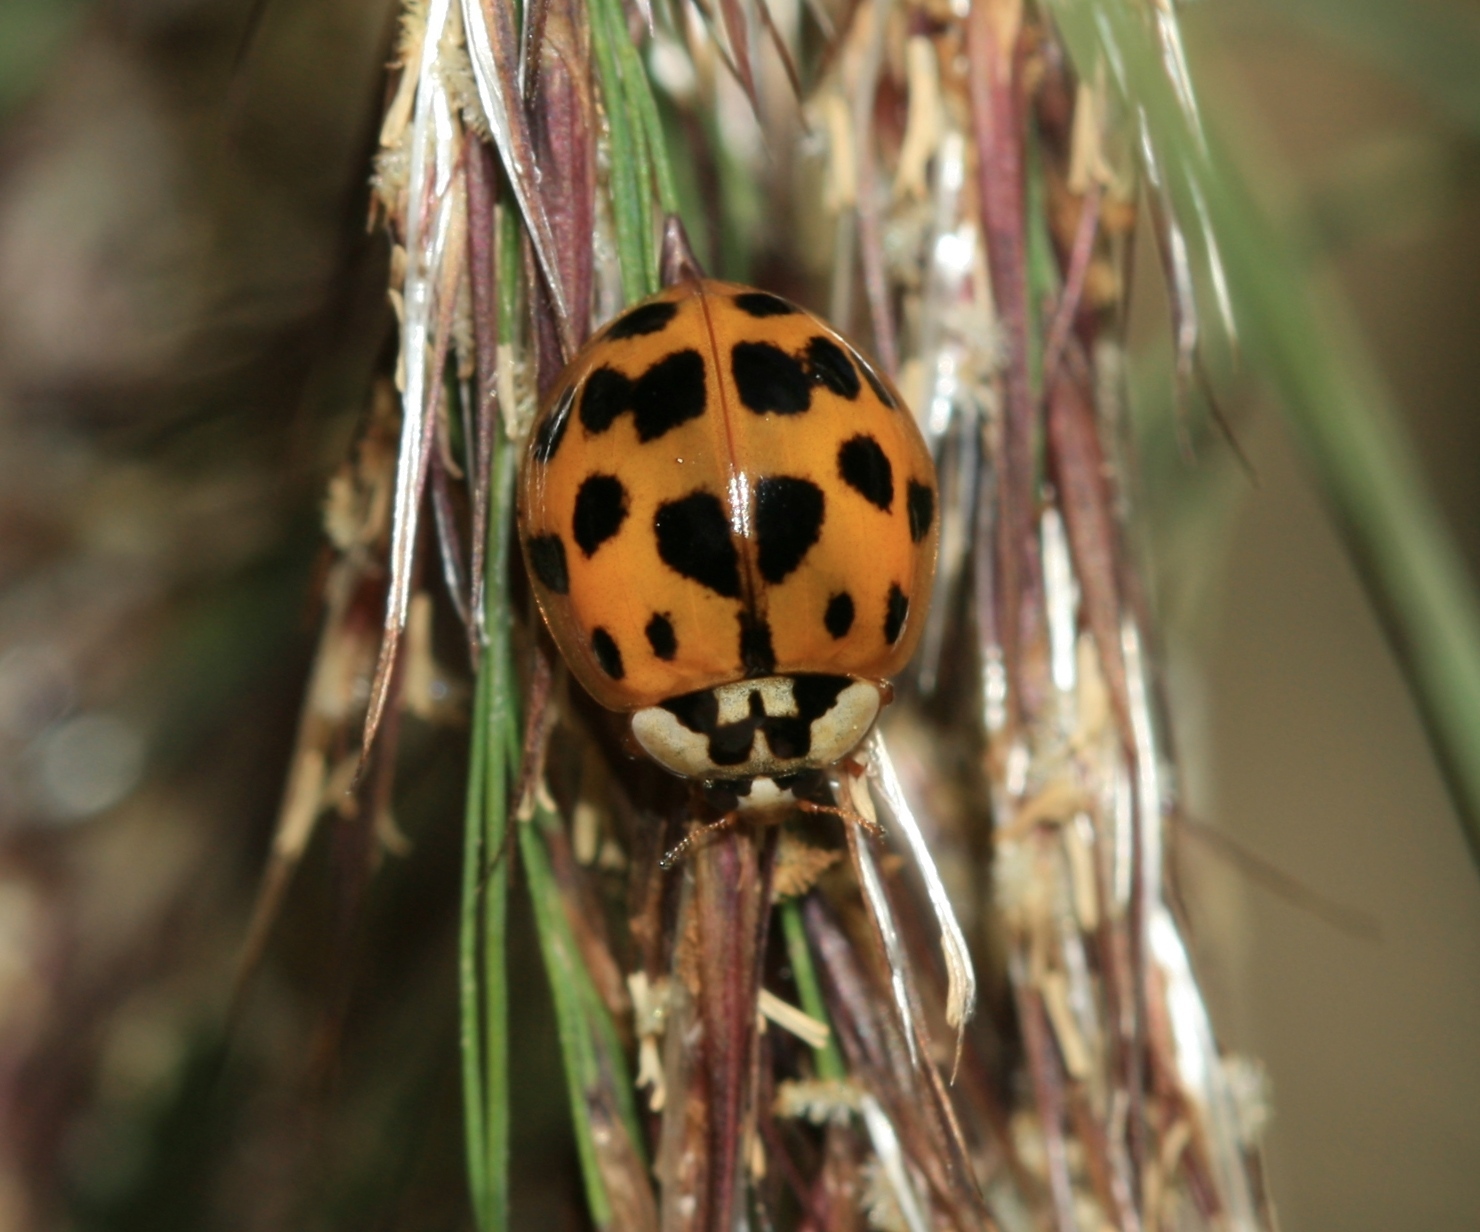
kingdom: Animalia
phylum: Arthropoda
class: Insecta
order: Coleoptera
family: Coccinellidae
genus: Harmonia
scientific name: Harmonia axyridis
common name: Harlequin ladybird
